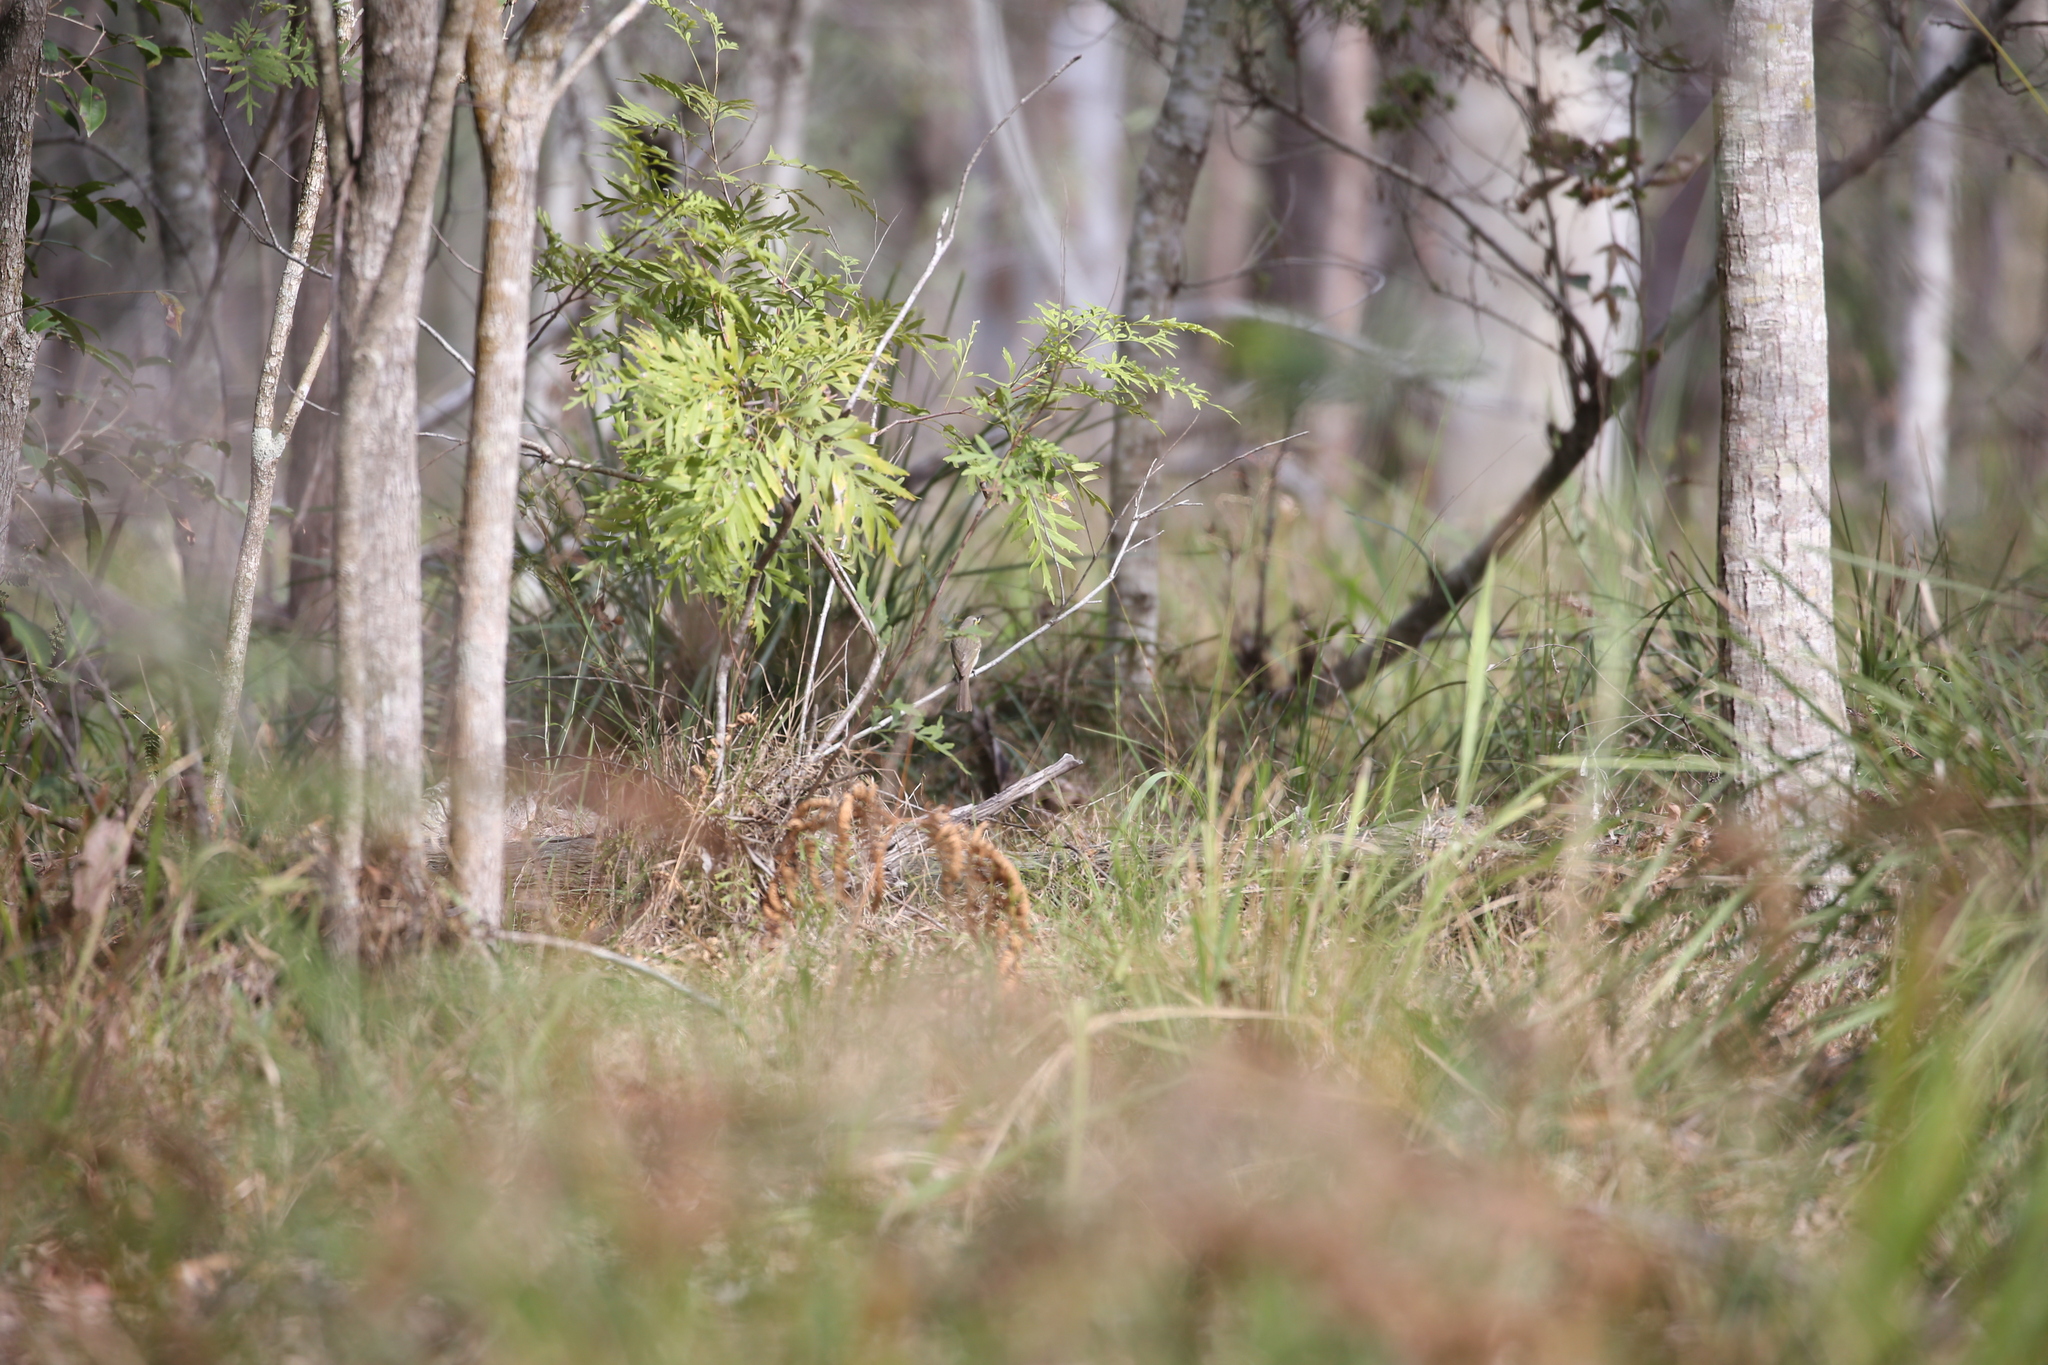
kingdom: Animalia
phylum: Chordata
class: Aves
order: Passeriformes
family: Meliphagidae
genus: Caligavis
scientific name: Caligavis chrysops
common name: Yellow-faced honeyeater
